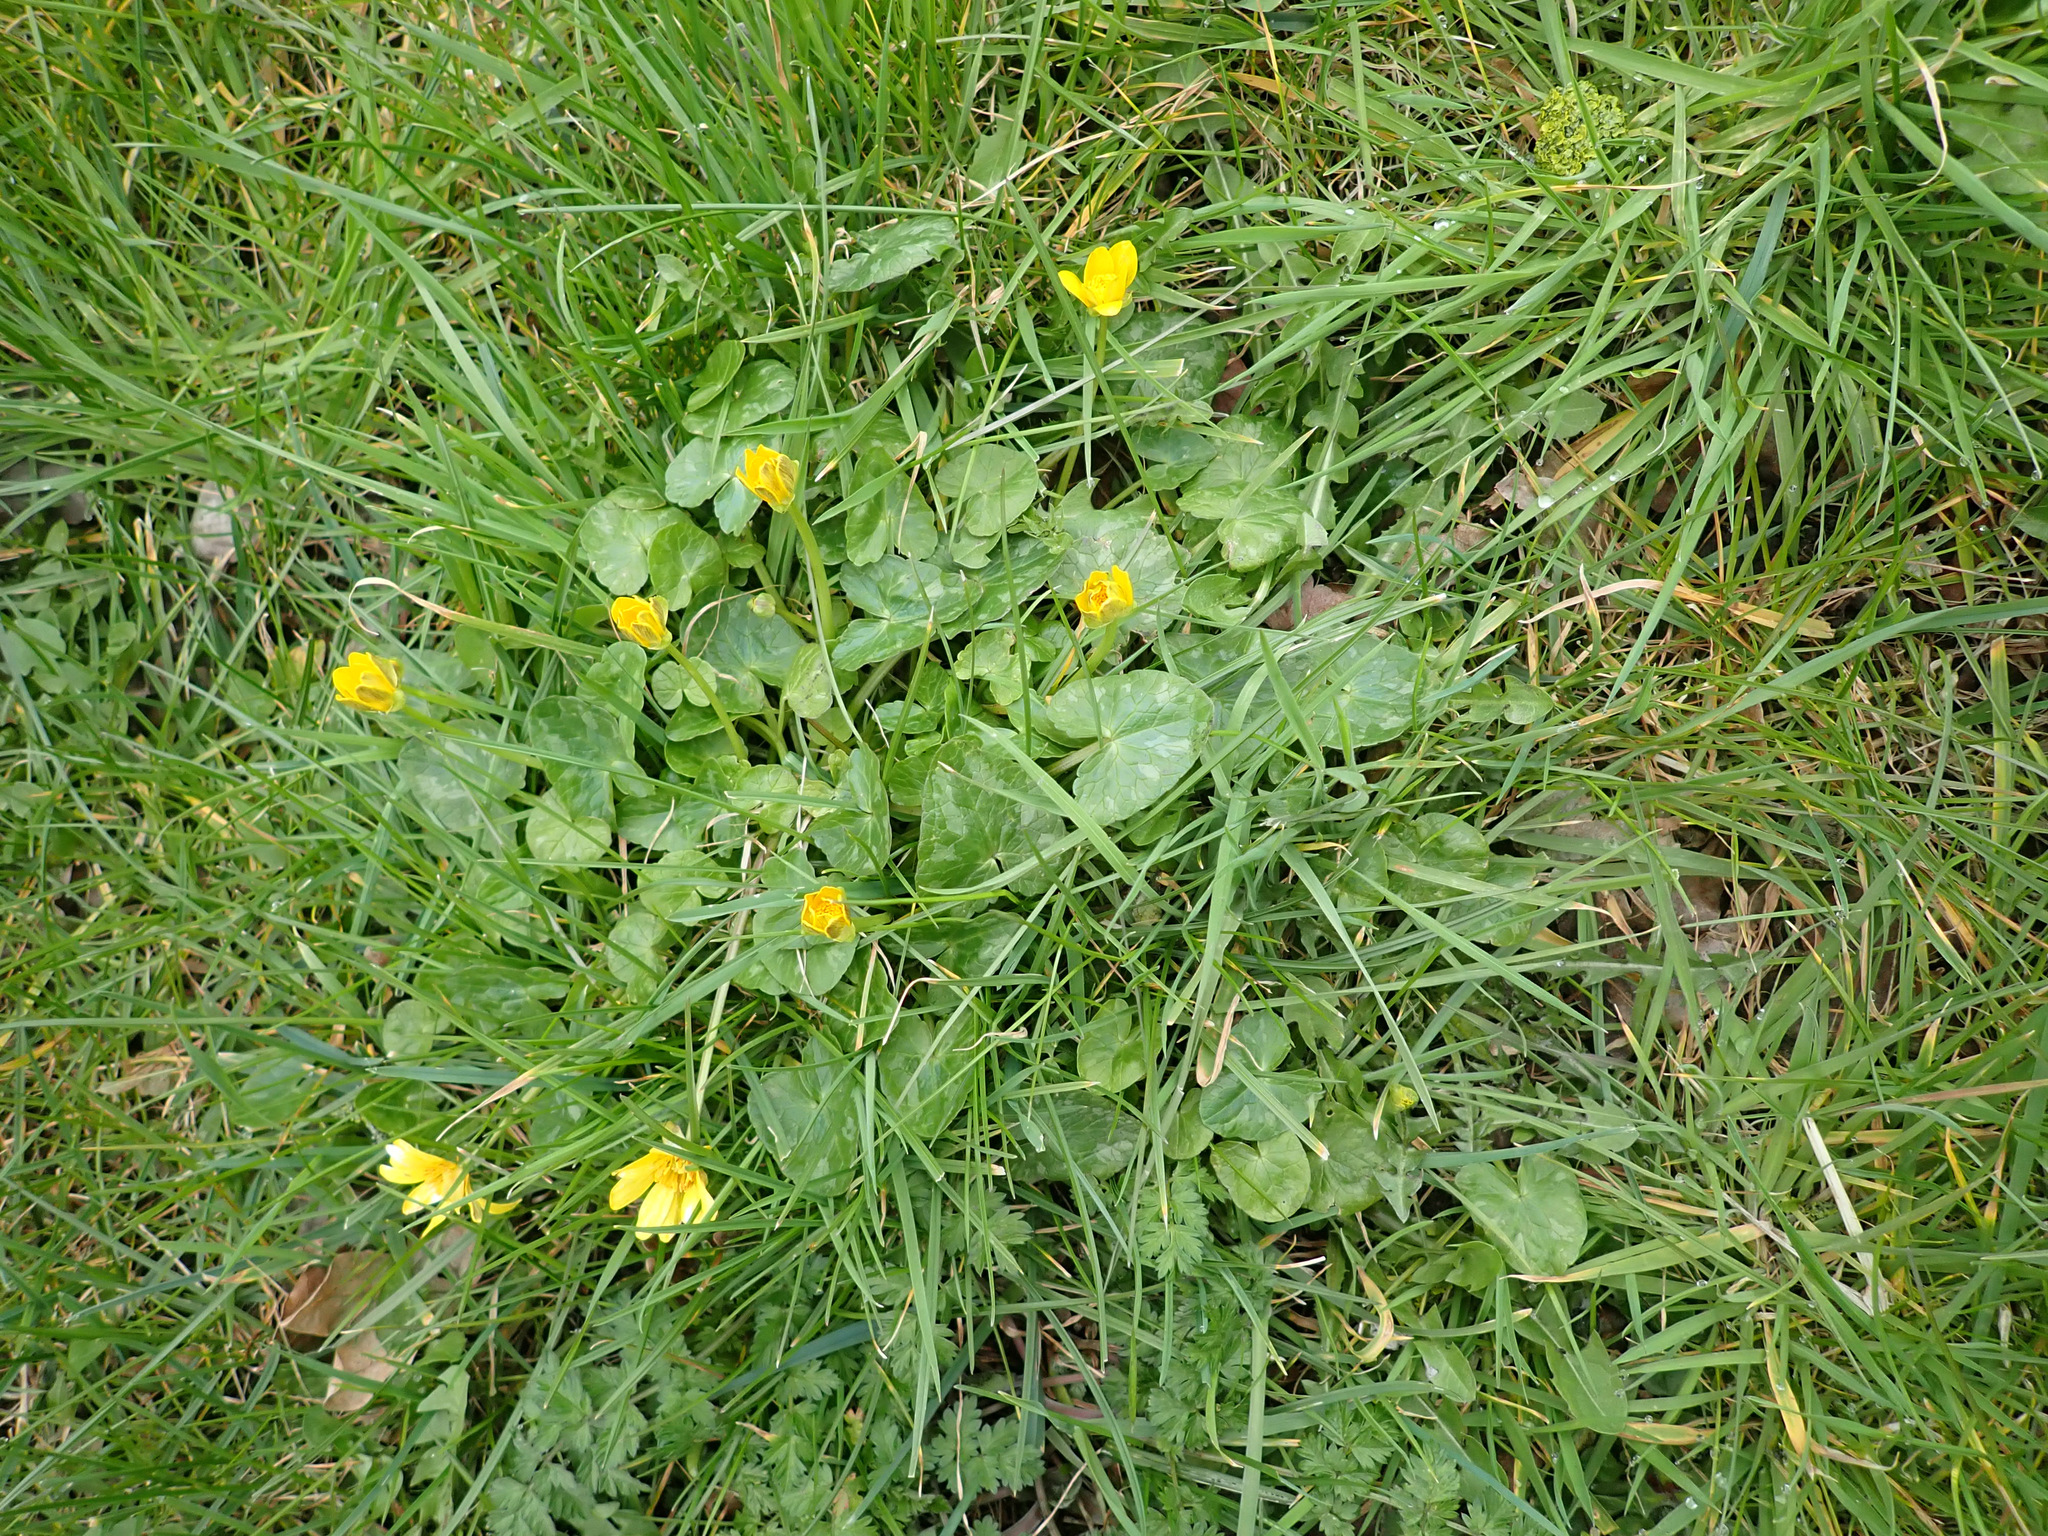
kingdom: Plantae
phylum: Tracheophyta
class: Magnoliopsida
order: Ranunculales
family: Ranunculaceae
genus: Ficaria
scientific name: Ficaria verna
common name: Lesser celandine
